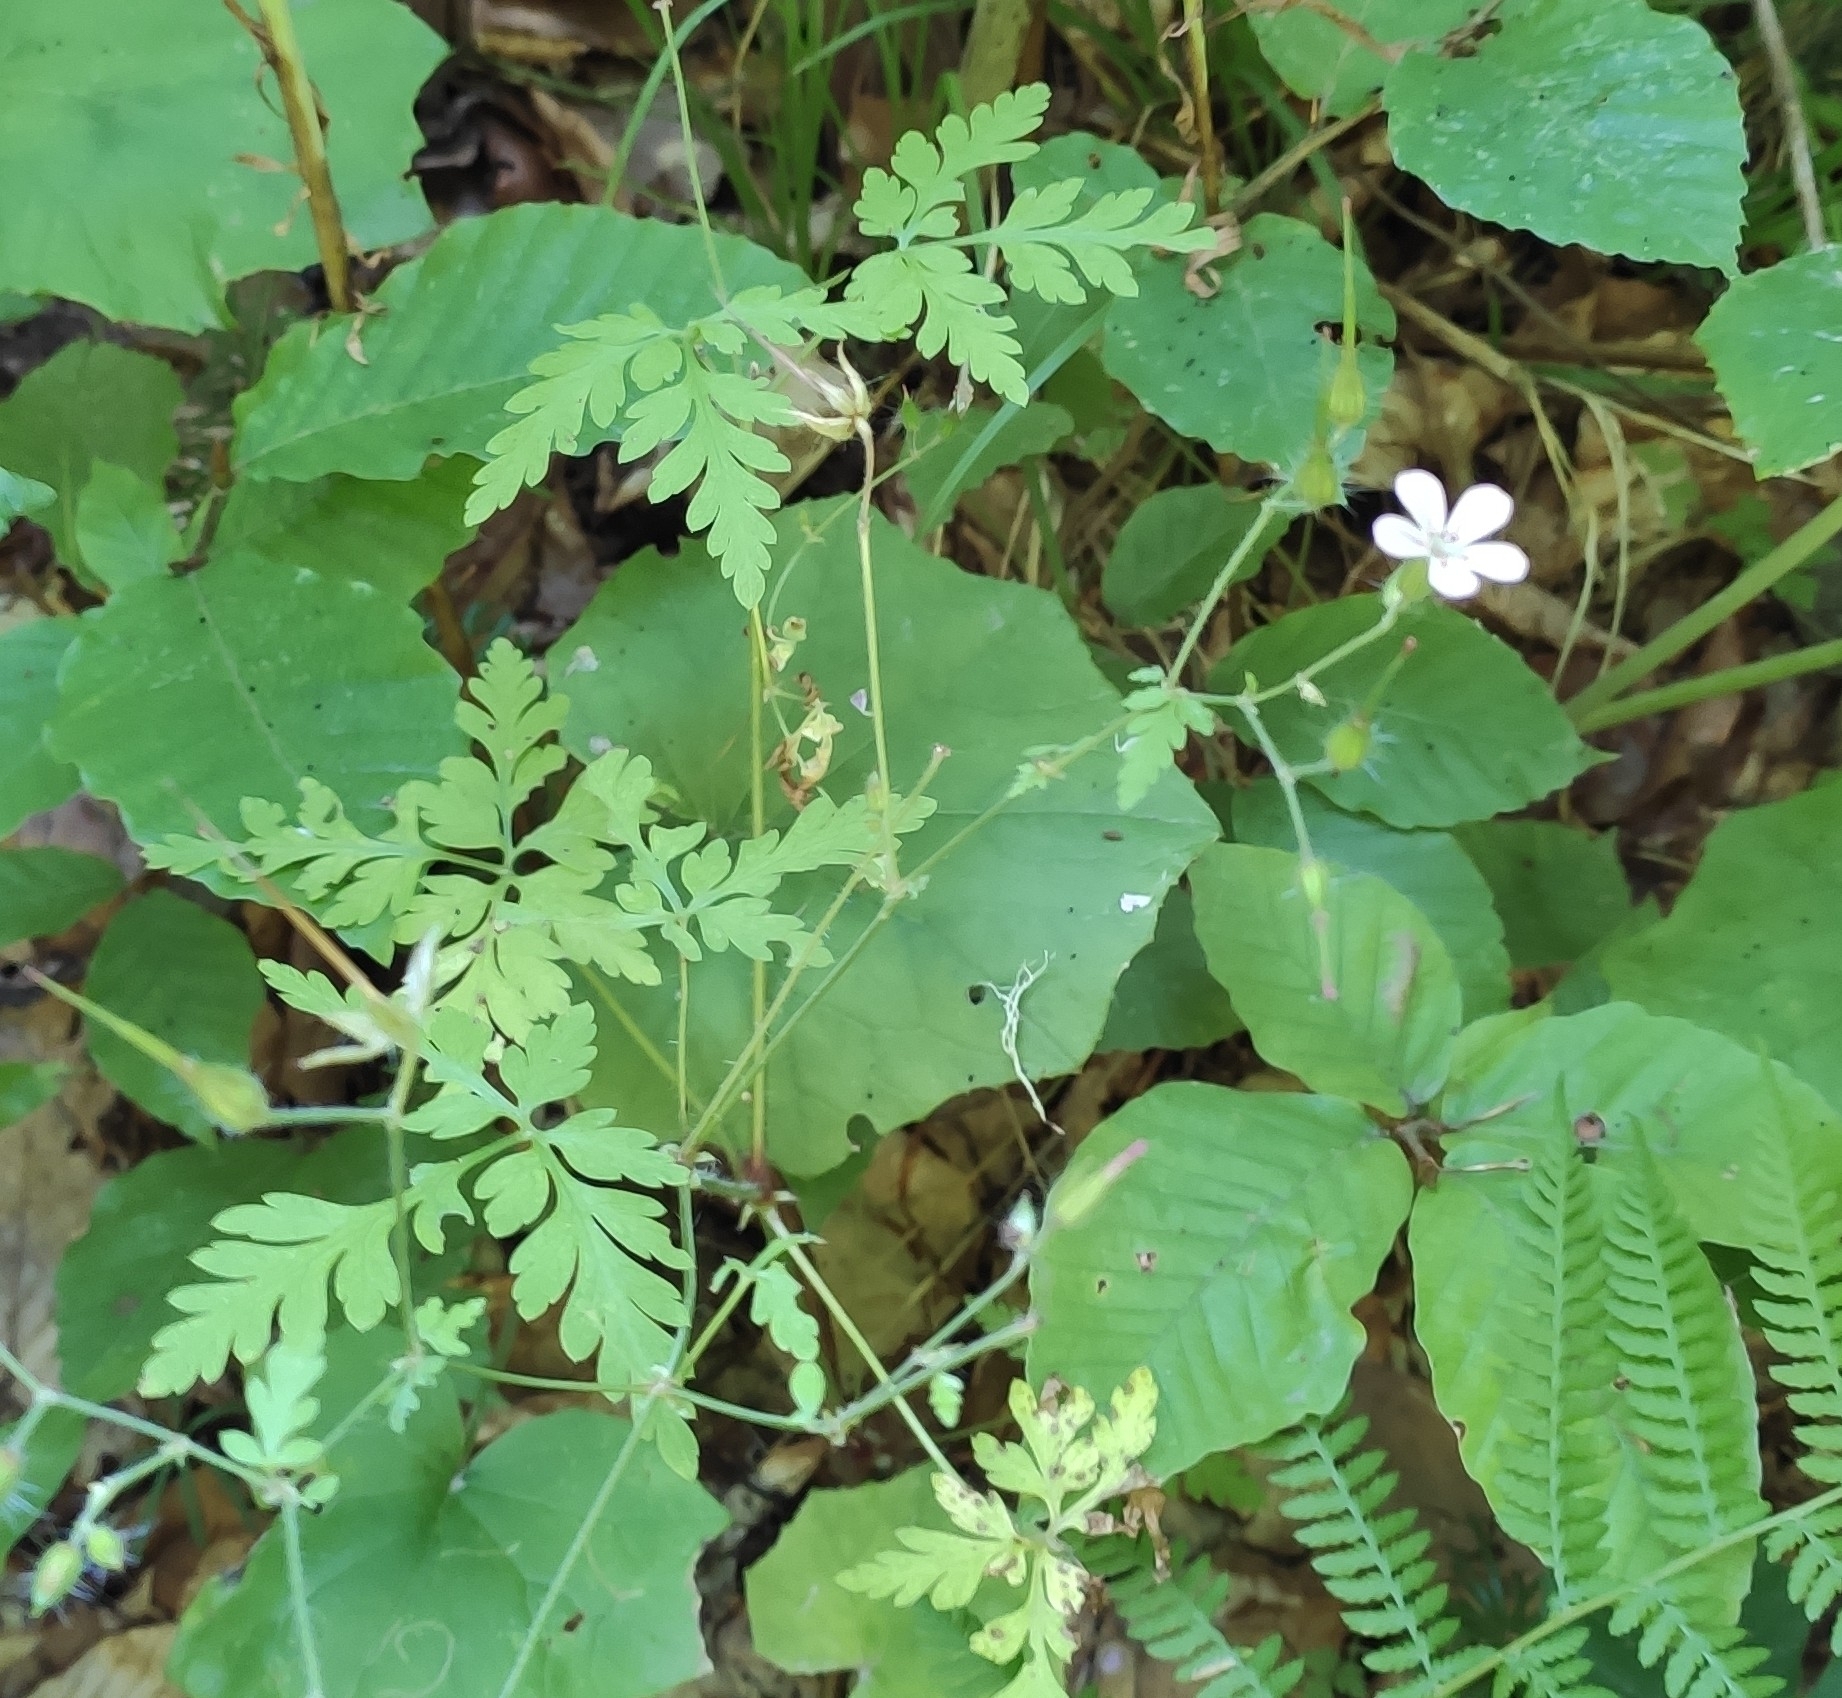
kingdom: Plantae
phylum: Tracheophyta
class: Magnoliopsida
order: Geraniales
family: Geraniaceae
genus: Geranium
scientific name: Geranium robertianum
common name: Herb-robert
